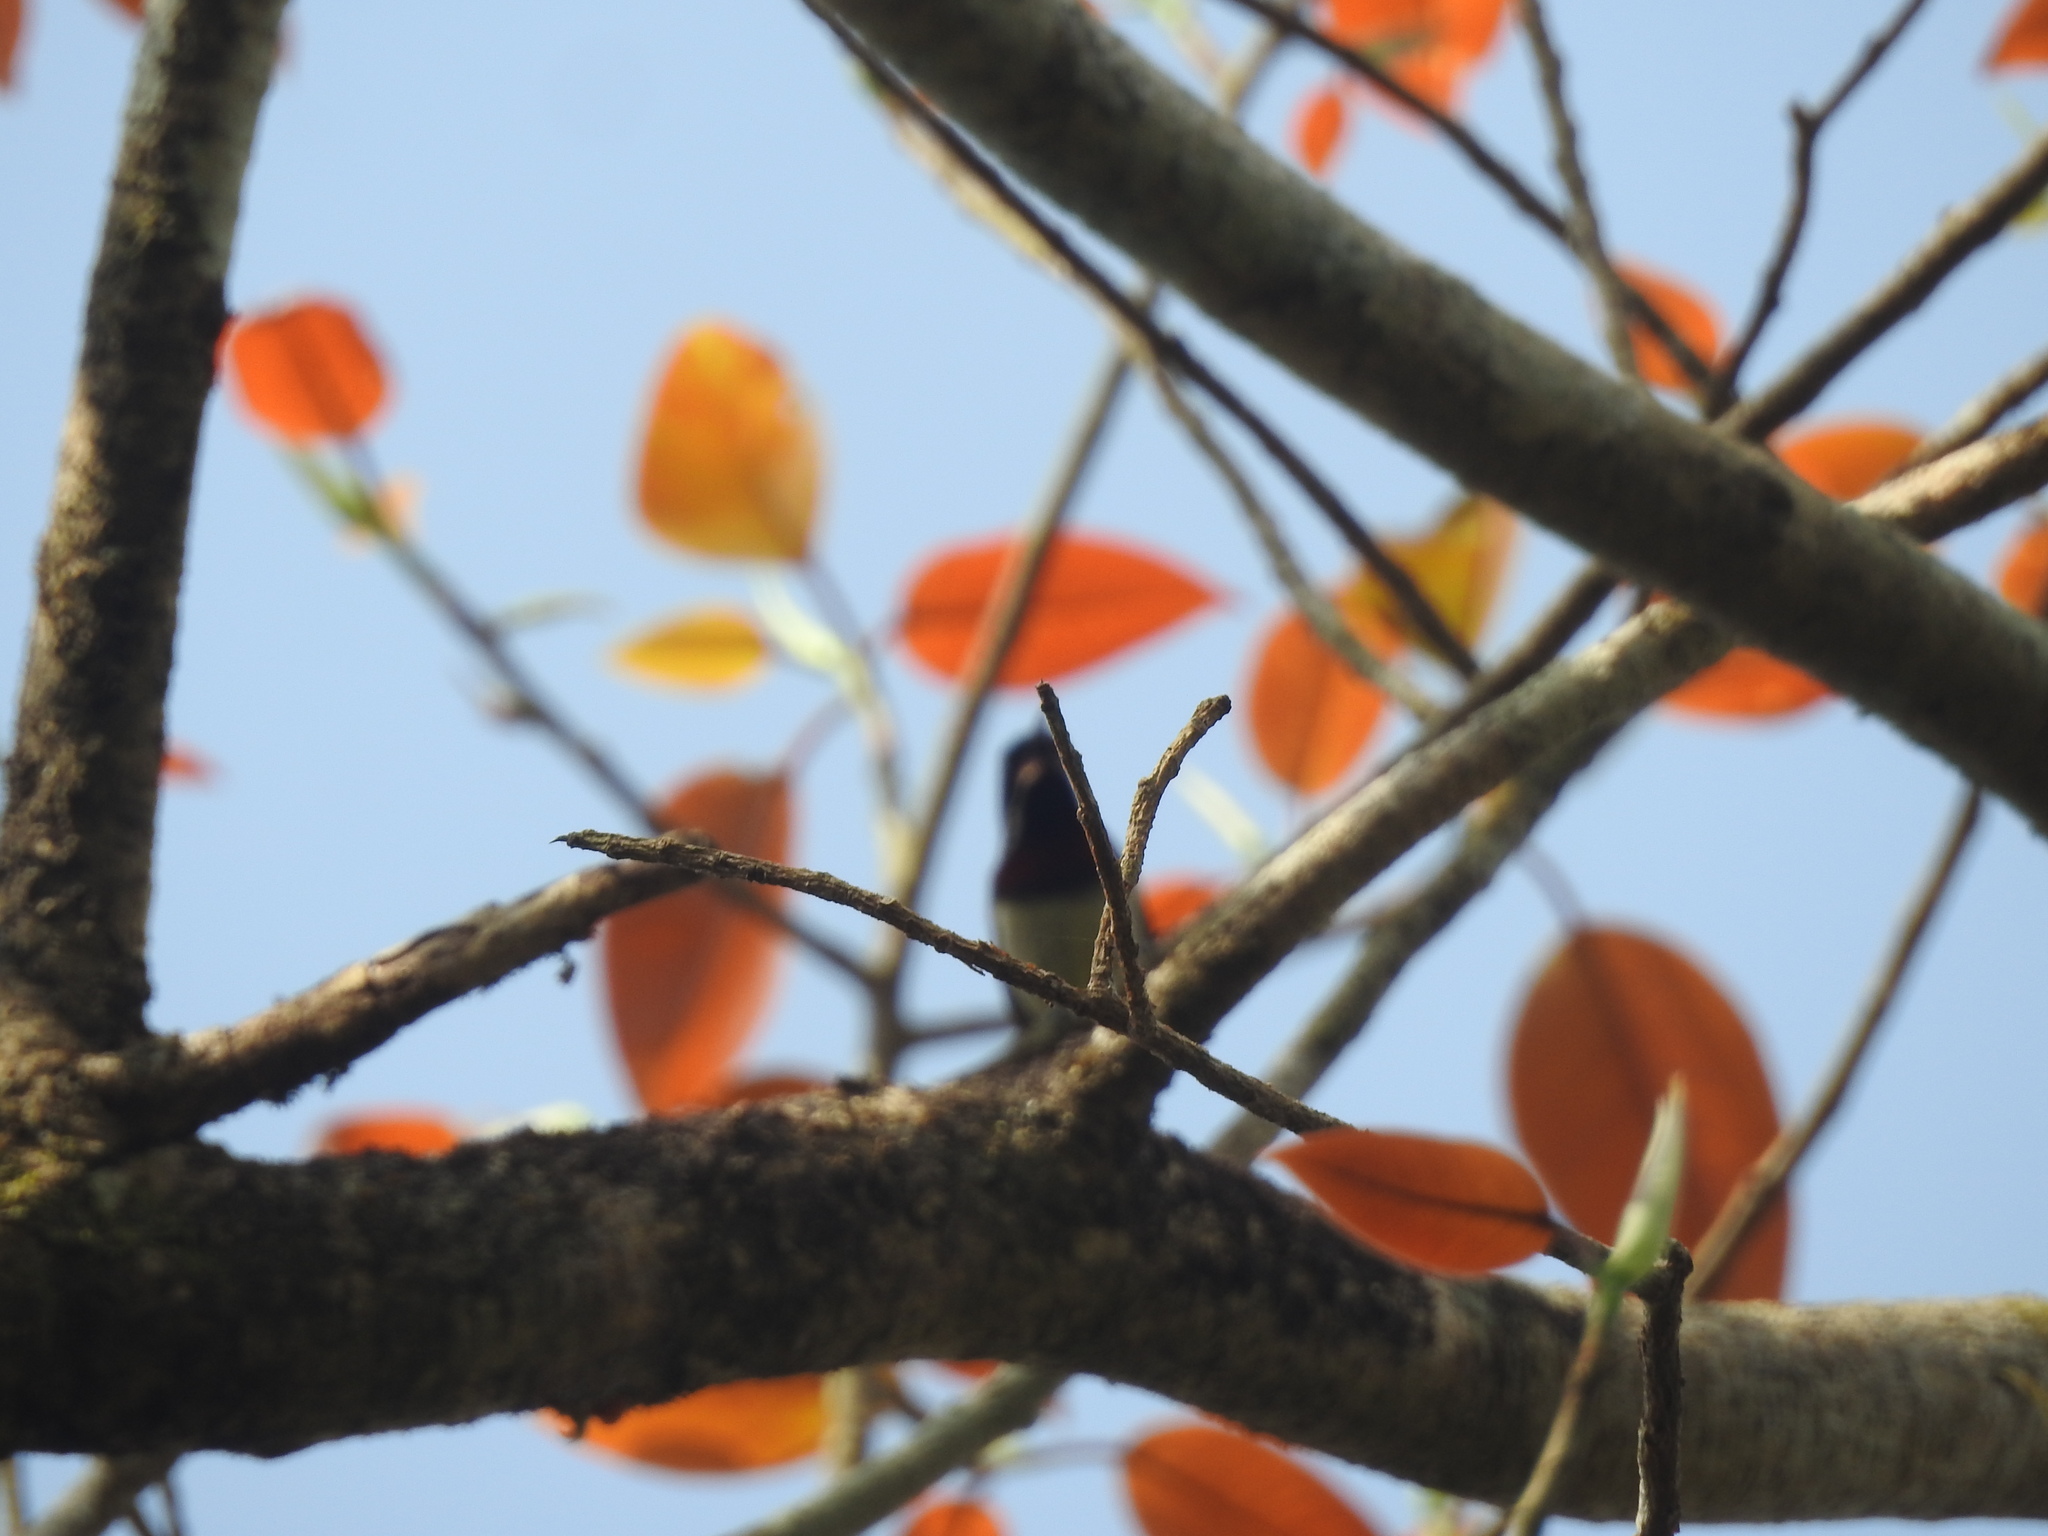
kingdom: Animalia
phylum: Chordata
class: Aves
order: Passeriformes
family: Nectariniidae
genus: Leptocoma
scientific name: Leptocoma minima
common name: Crimson-backed sunbird
